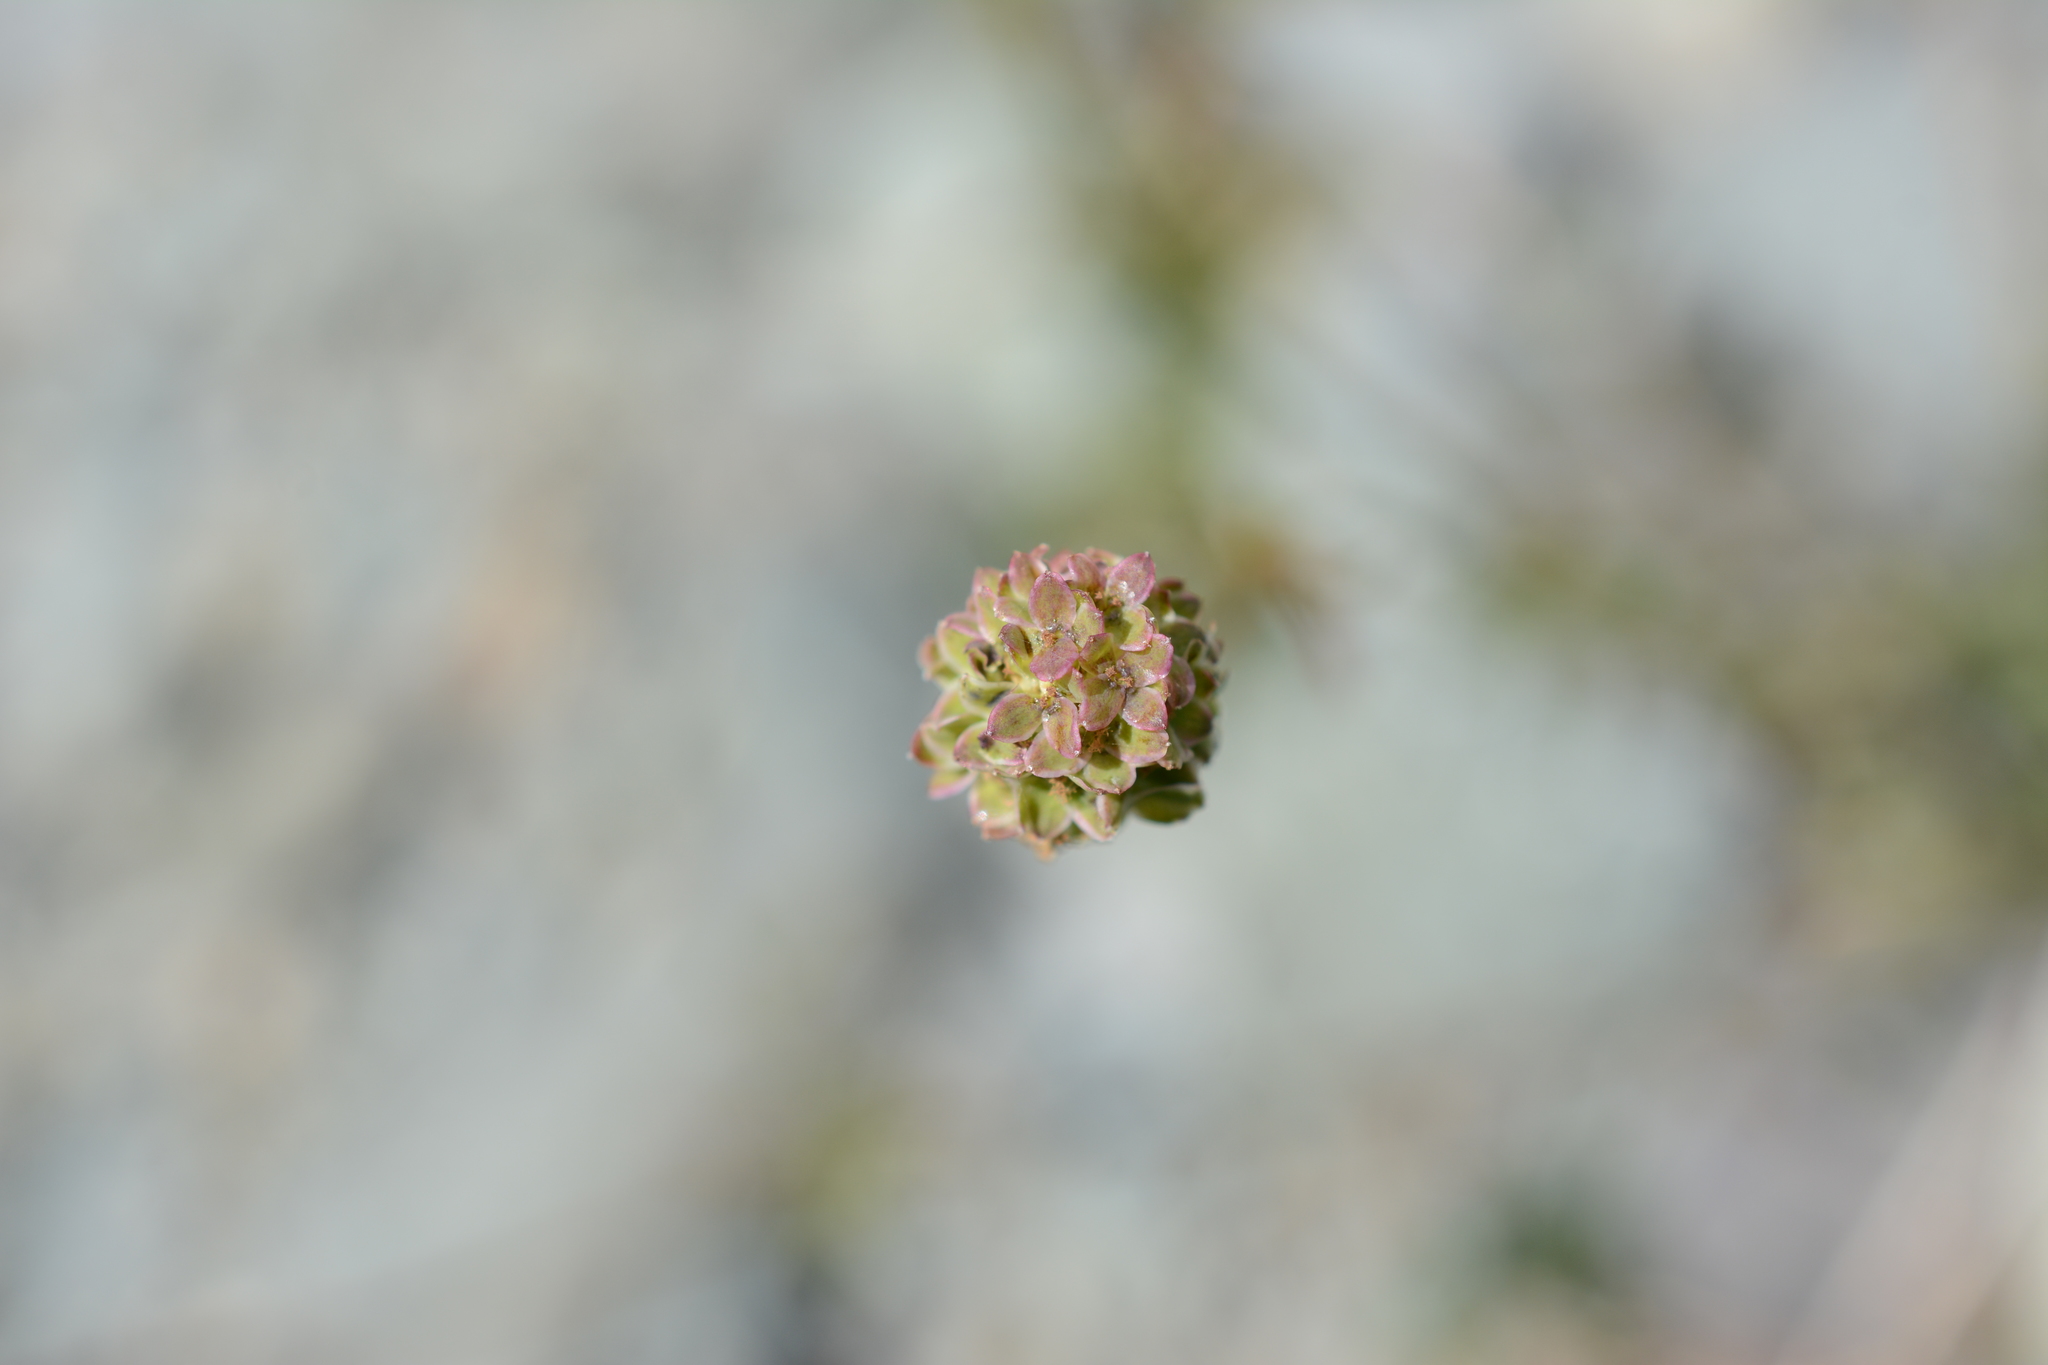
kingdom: Plantae
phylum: Tracheophyta
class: Magnoliopsida
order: Rosales
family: Rosaceae
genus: Poterium
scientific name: Poterium sanguisorba
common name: Salad burnet
